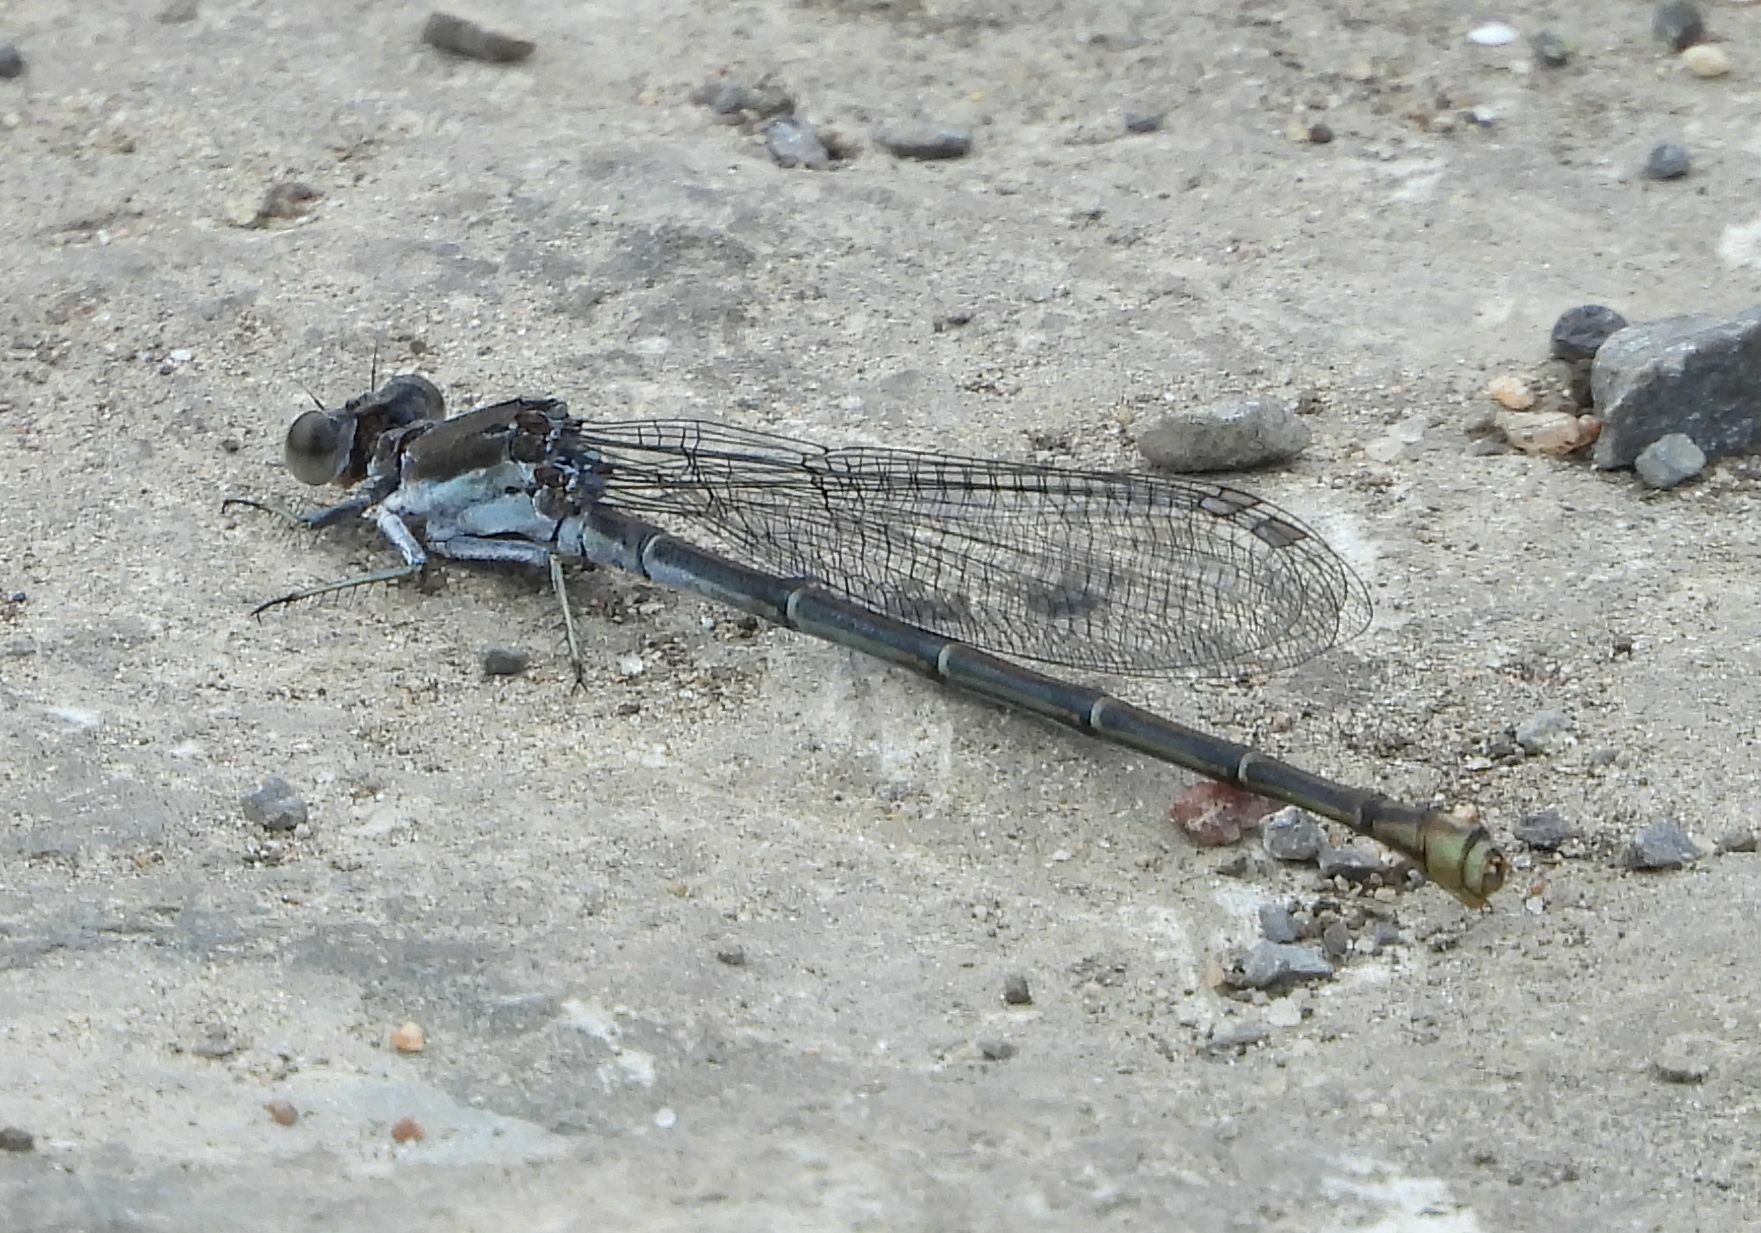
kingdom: Animalia
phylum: Arthropoda
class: Insecta
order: Odonata
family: Coenagrionidae
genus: Argia
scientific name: Argia moesta
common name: Powdered dancer
